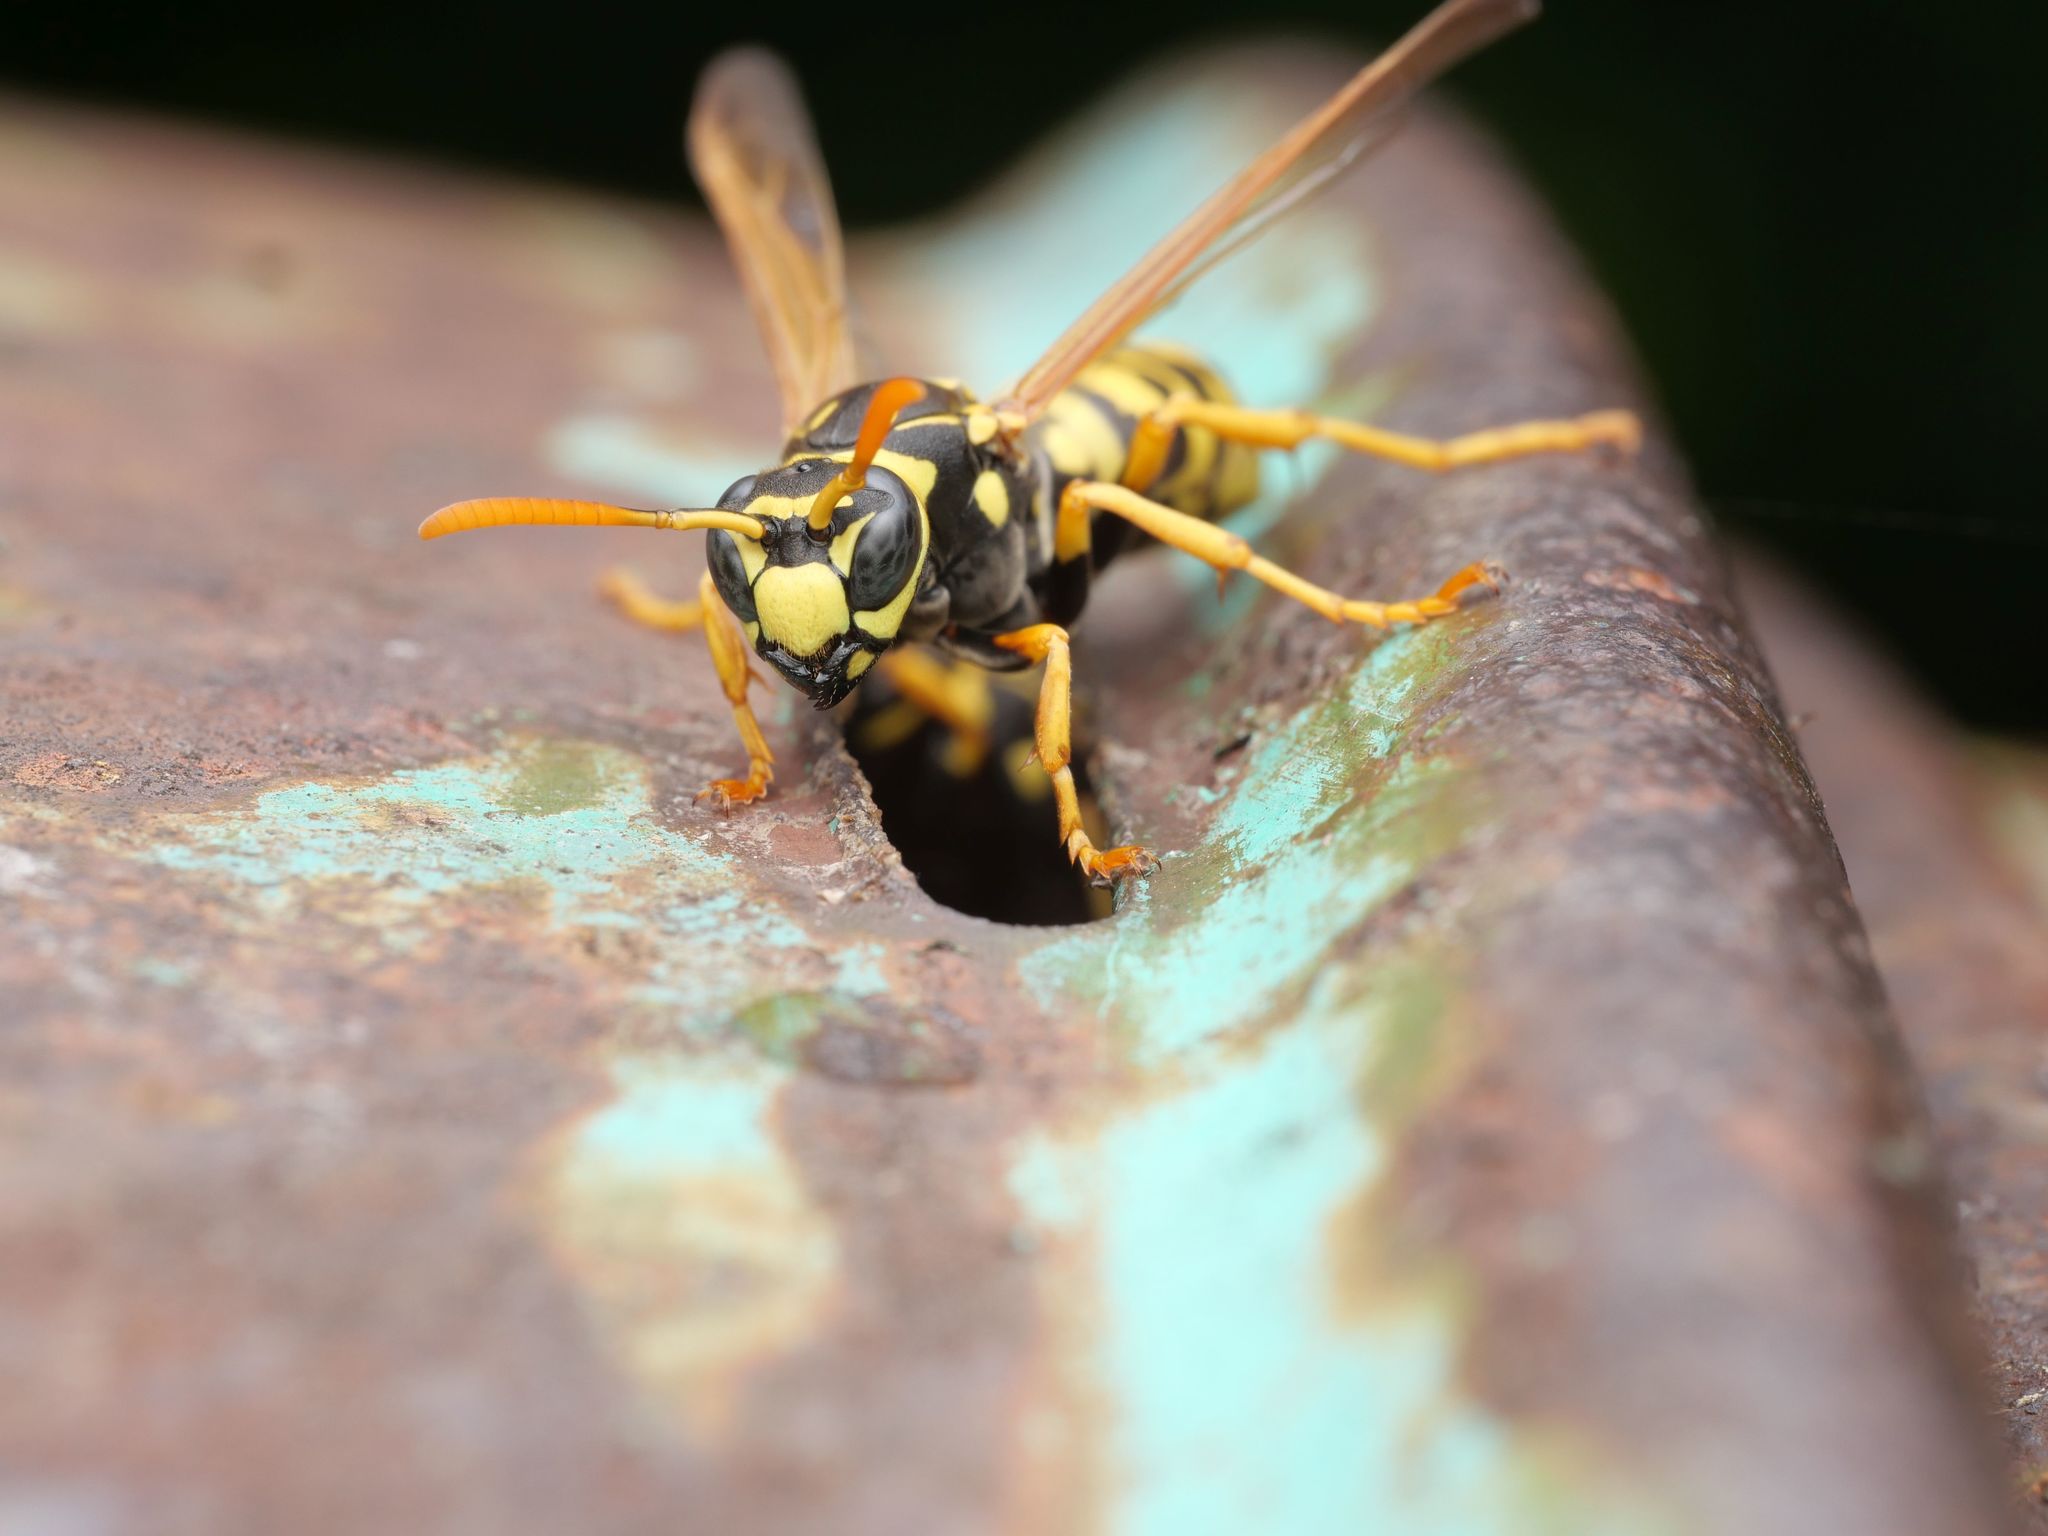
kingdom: Animalia
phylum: Arthropoda
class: Insecta
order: Hymenoptera
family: Eumenidae
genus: Polistes
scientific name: Polistes dominula
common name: Paper wasp
